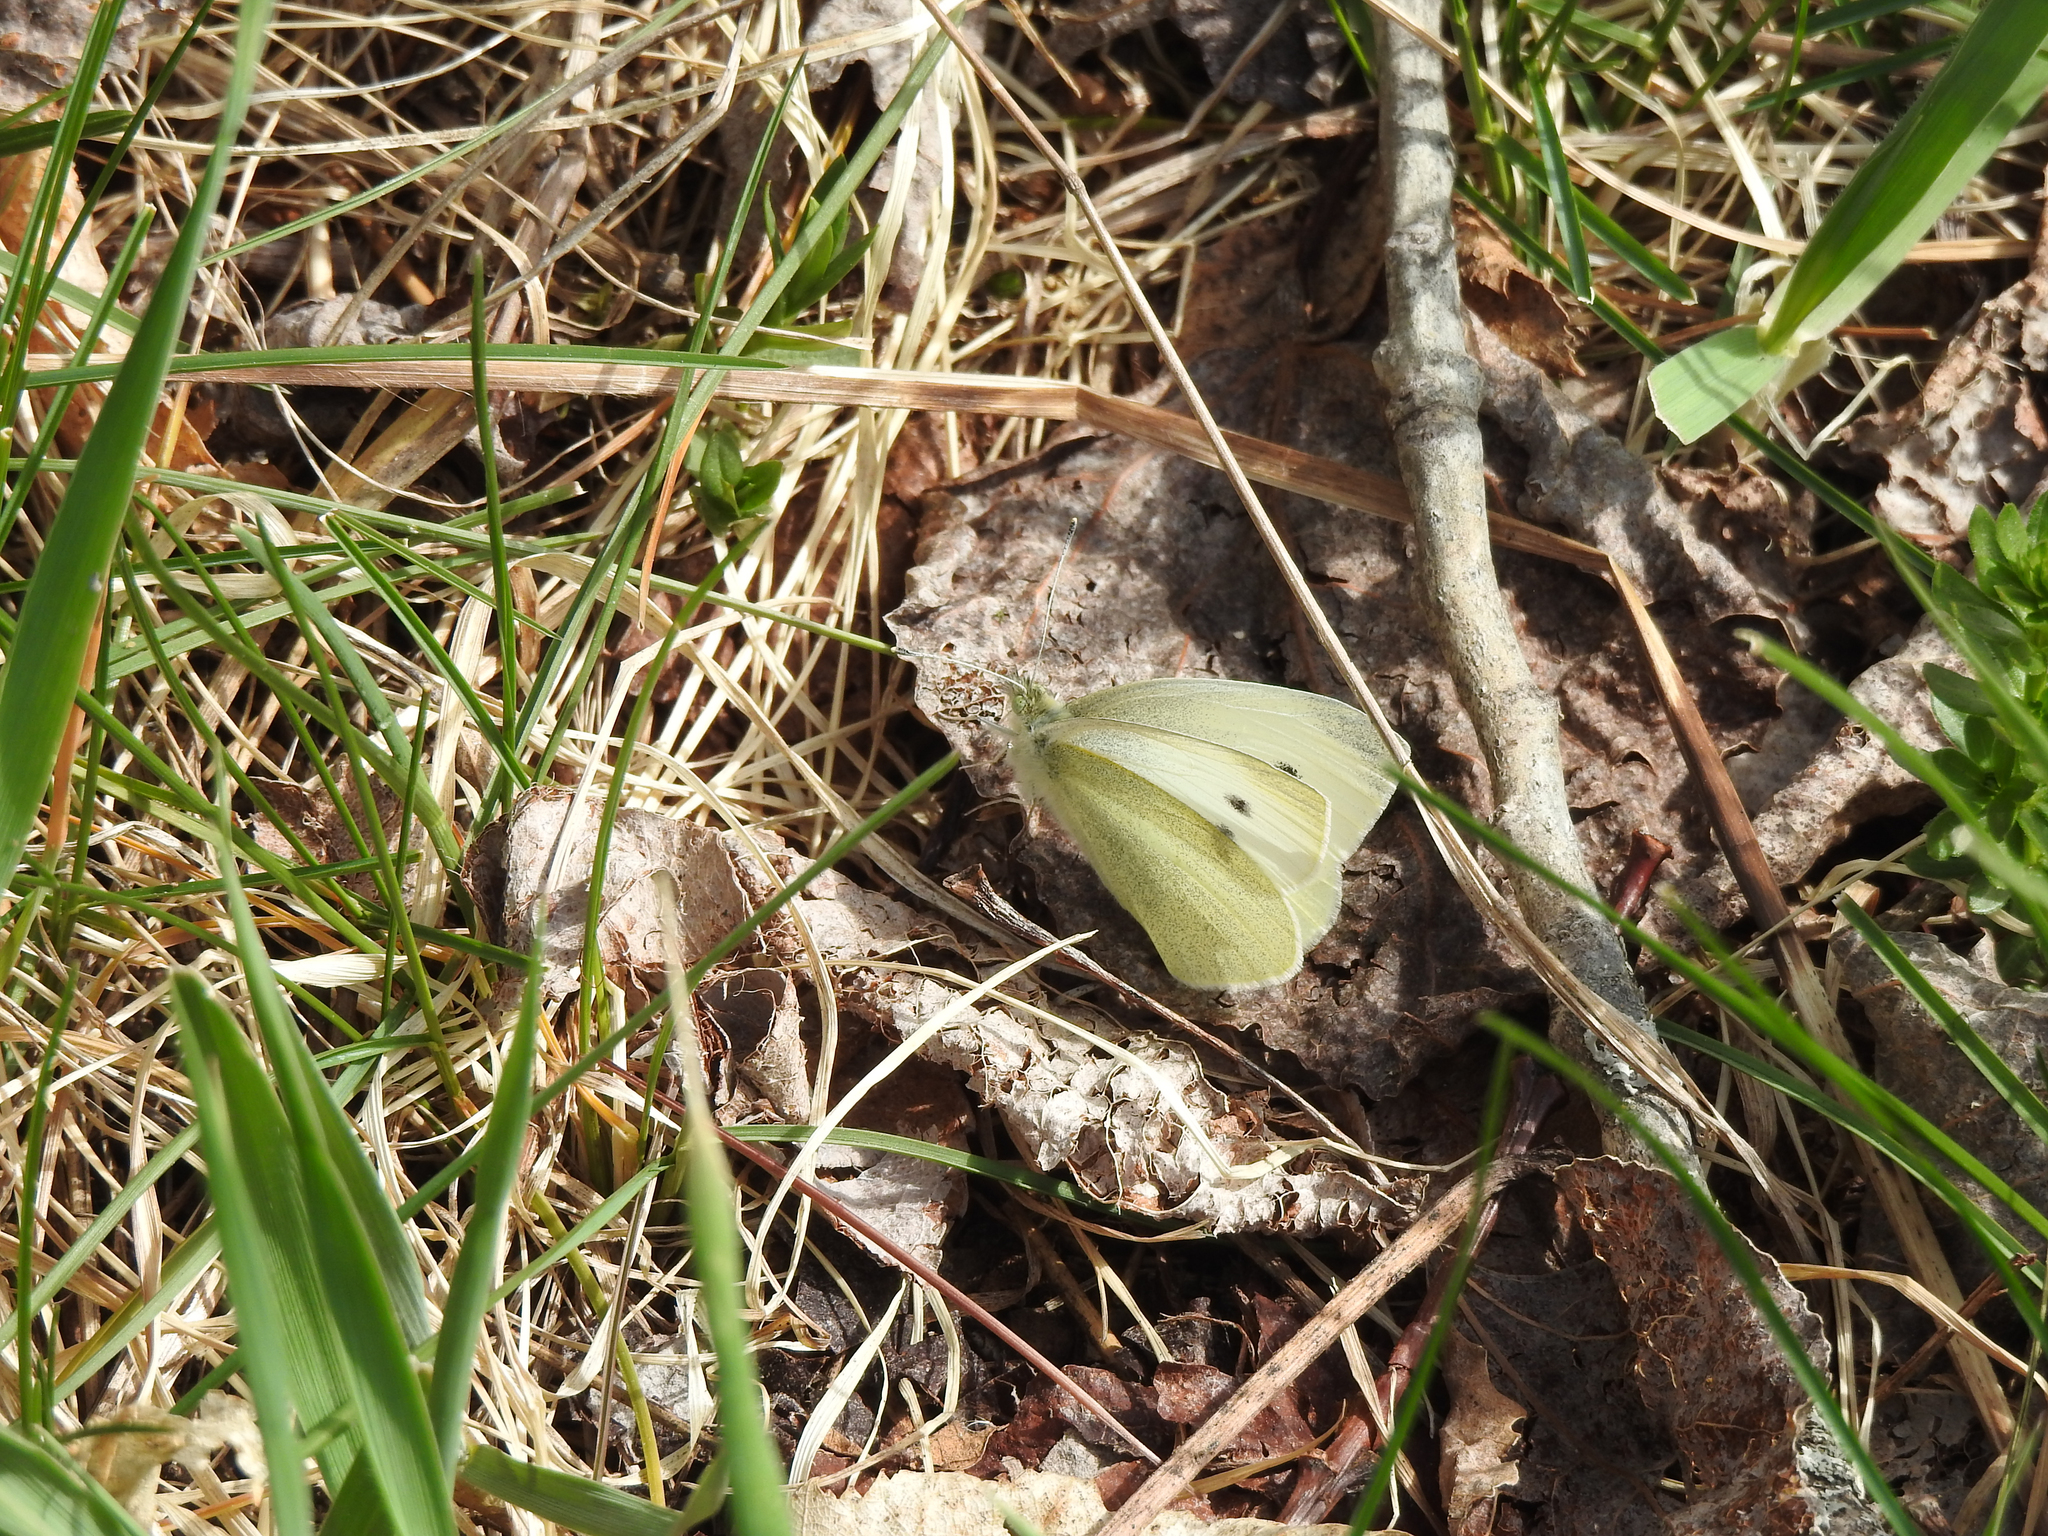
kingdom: Animalia
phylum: Arthropoda
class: Insecta
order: Lepidoptera
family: Pieridae
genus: Pieris
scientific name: Pieris rapae
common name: Small white
